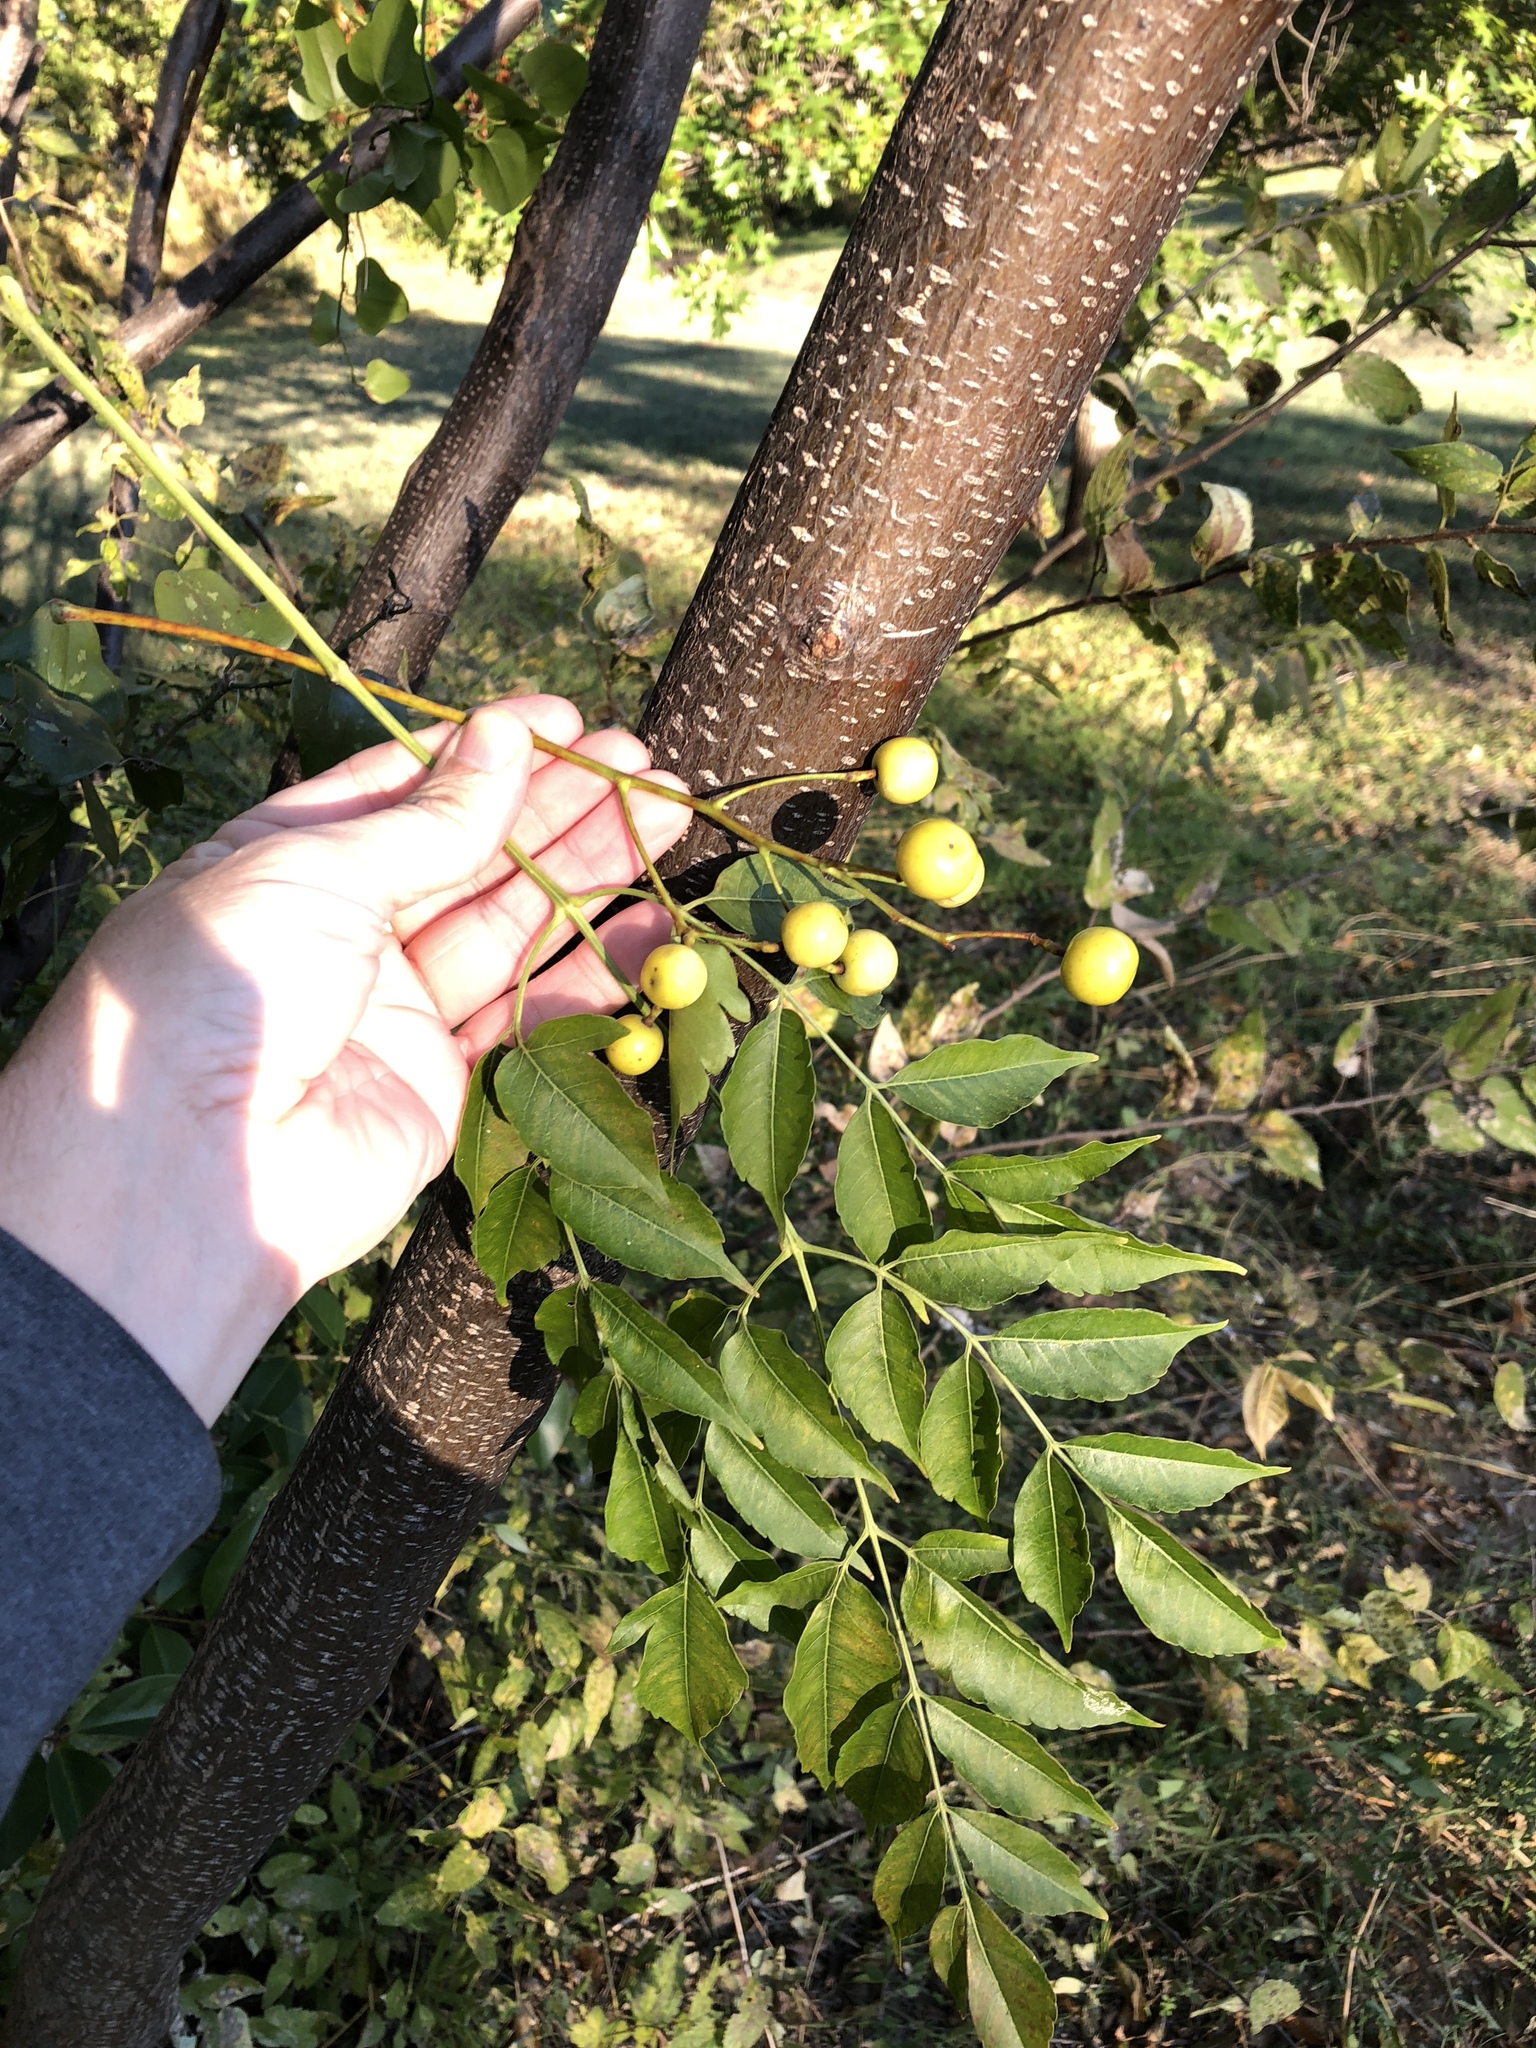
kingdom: Plantae
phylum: Tracheophyta
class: Magnoliopsida
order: Sapindales
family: Meliaceae
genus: Melia
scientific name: Melia azedarach
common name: Chinaberrytree
